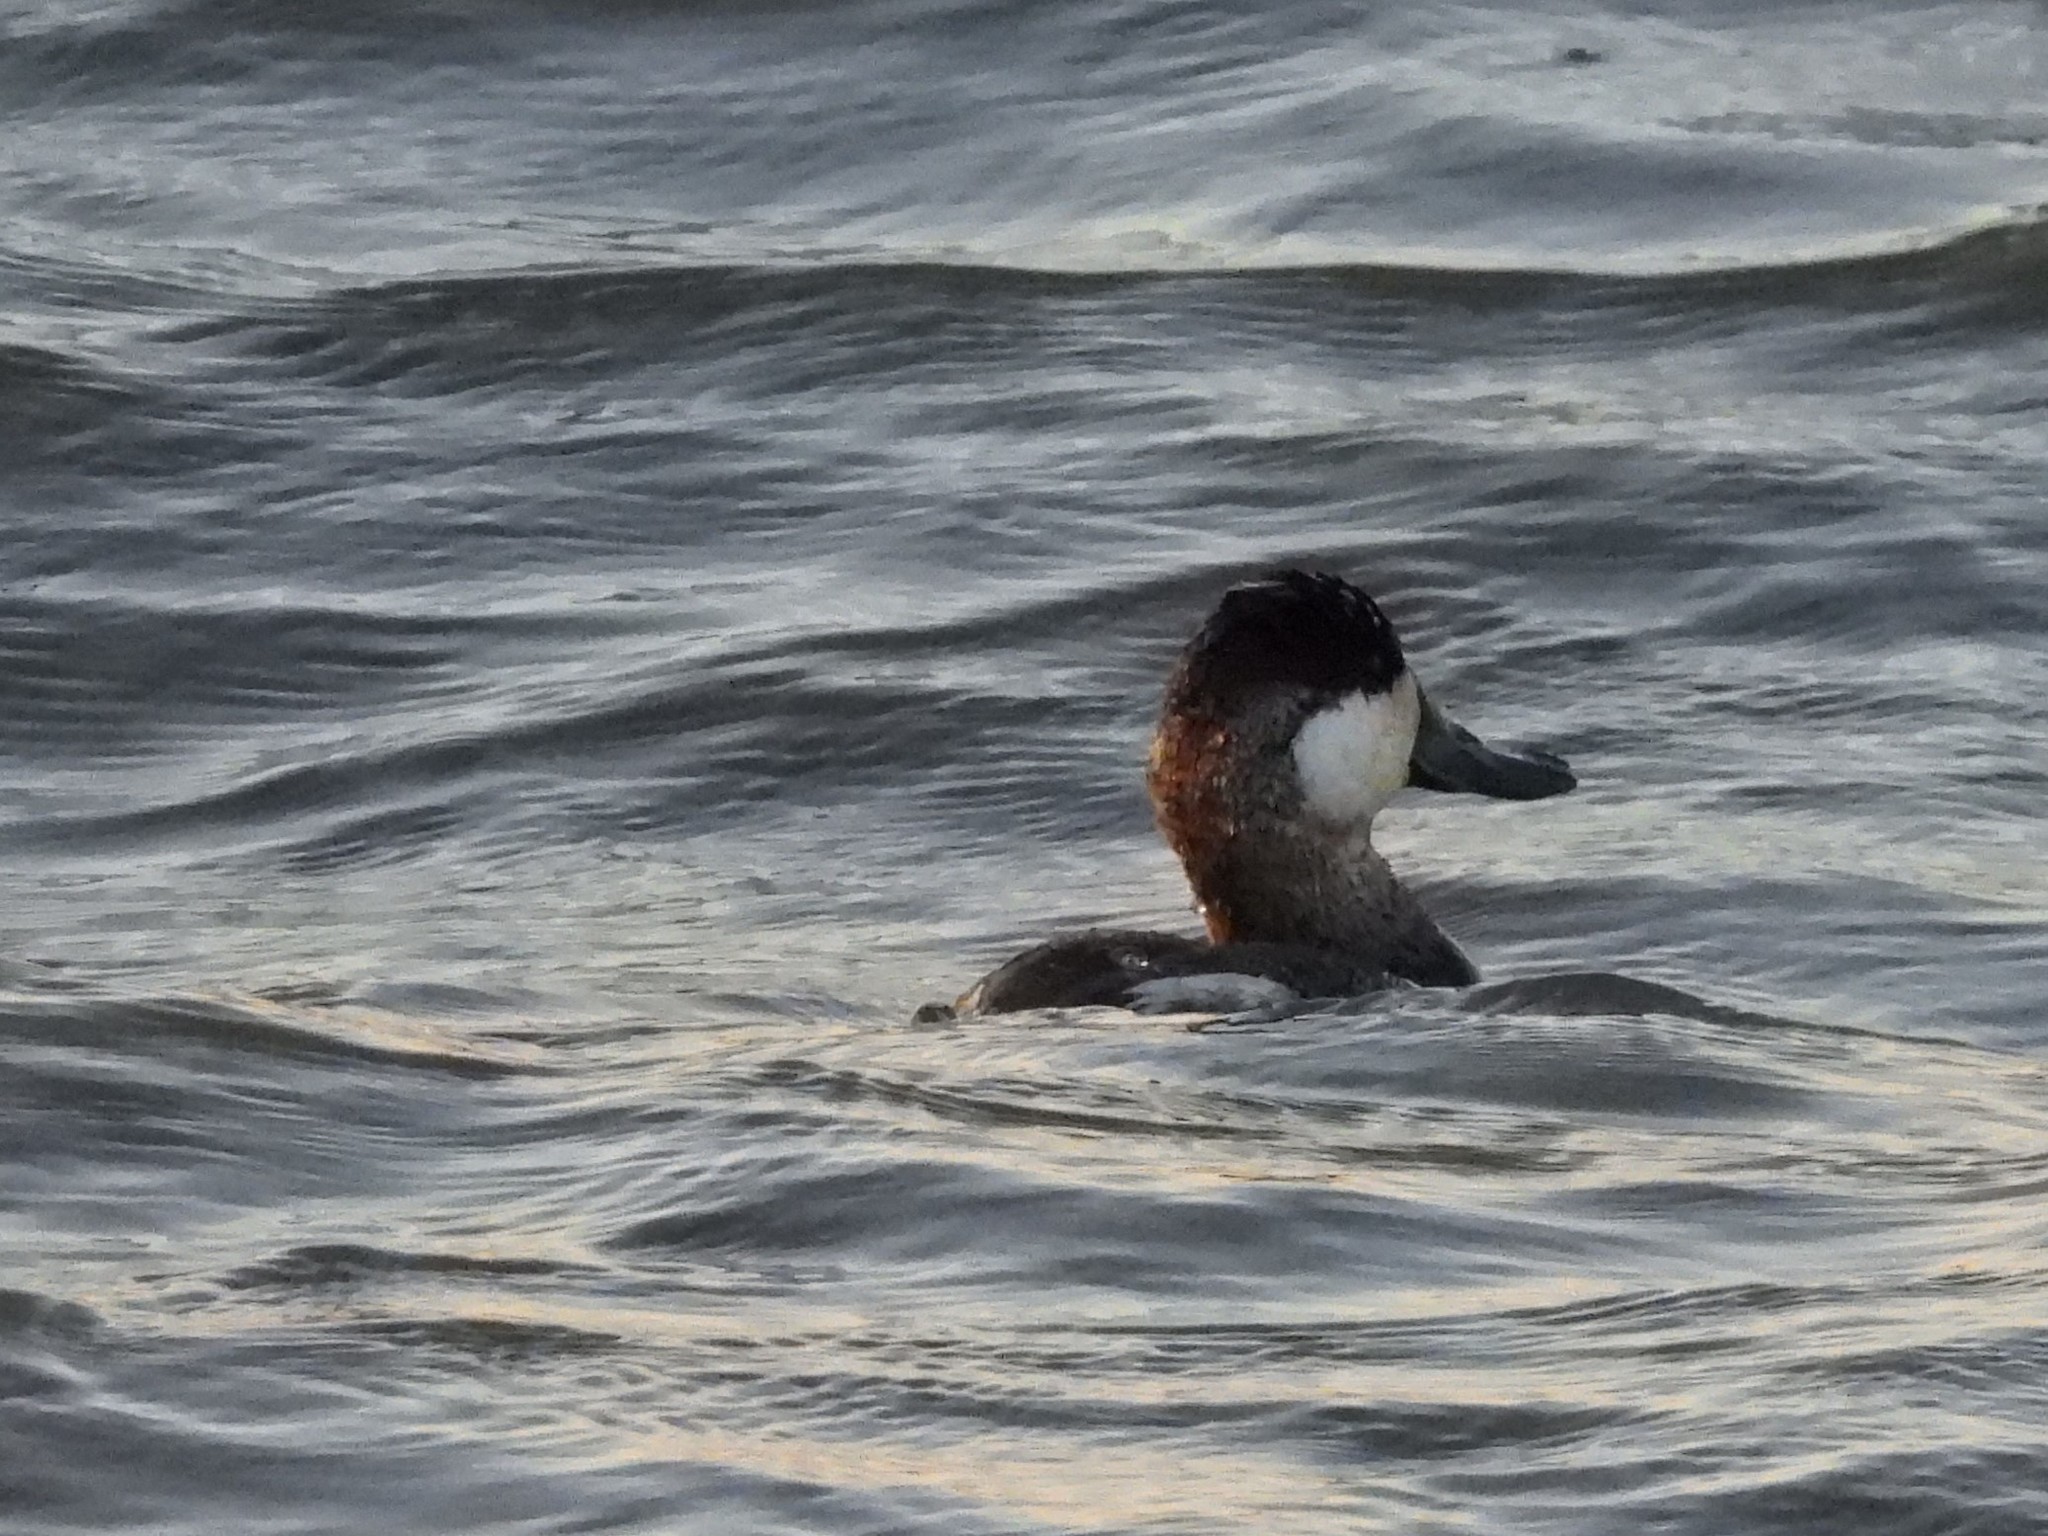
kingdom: Animalia
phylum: Chordata
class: Aves
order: Anseriformes
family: Anatidae
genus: Oxyura
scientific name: Oxyura jamaicensis
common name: Ruddy duck
